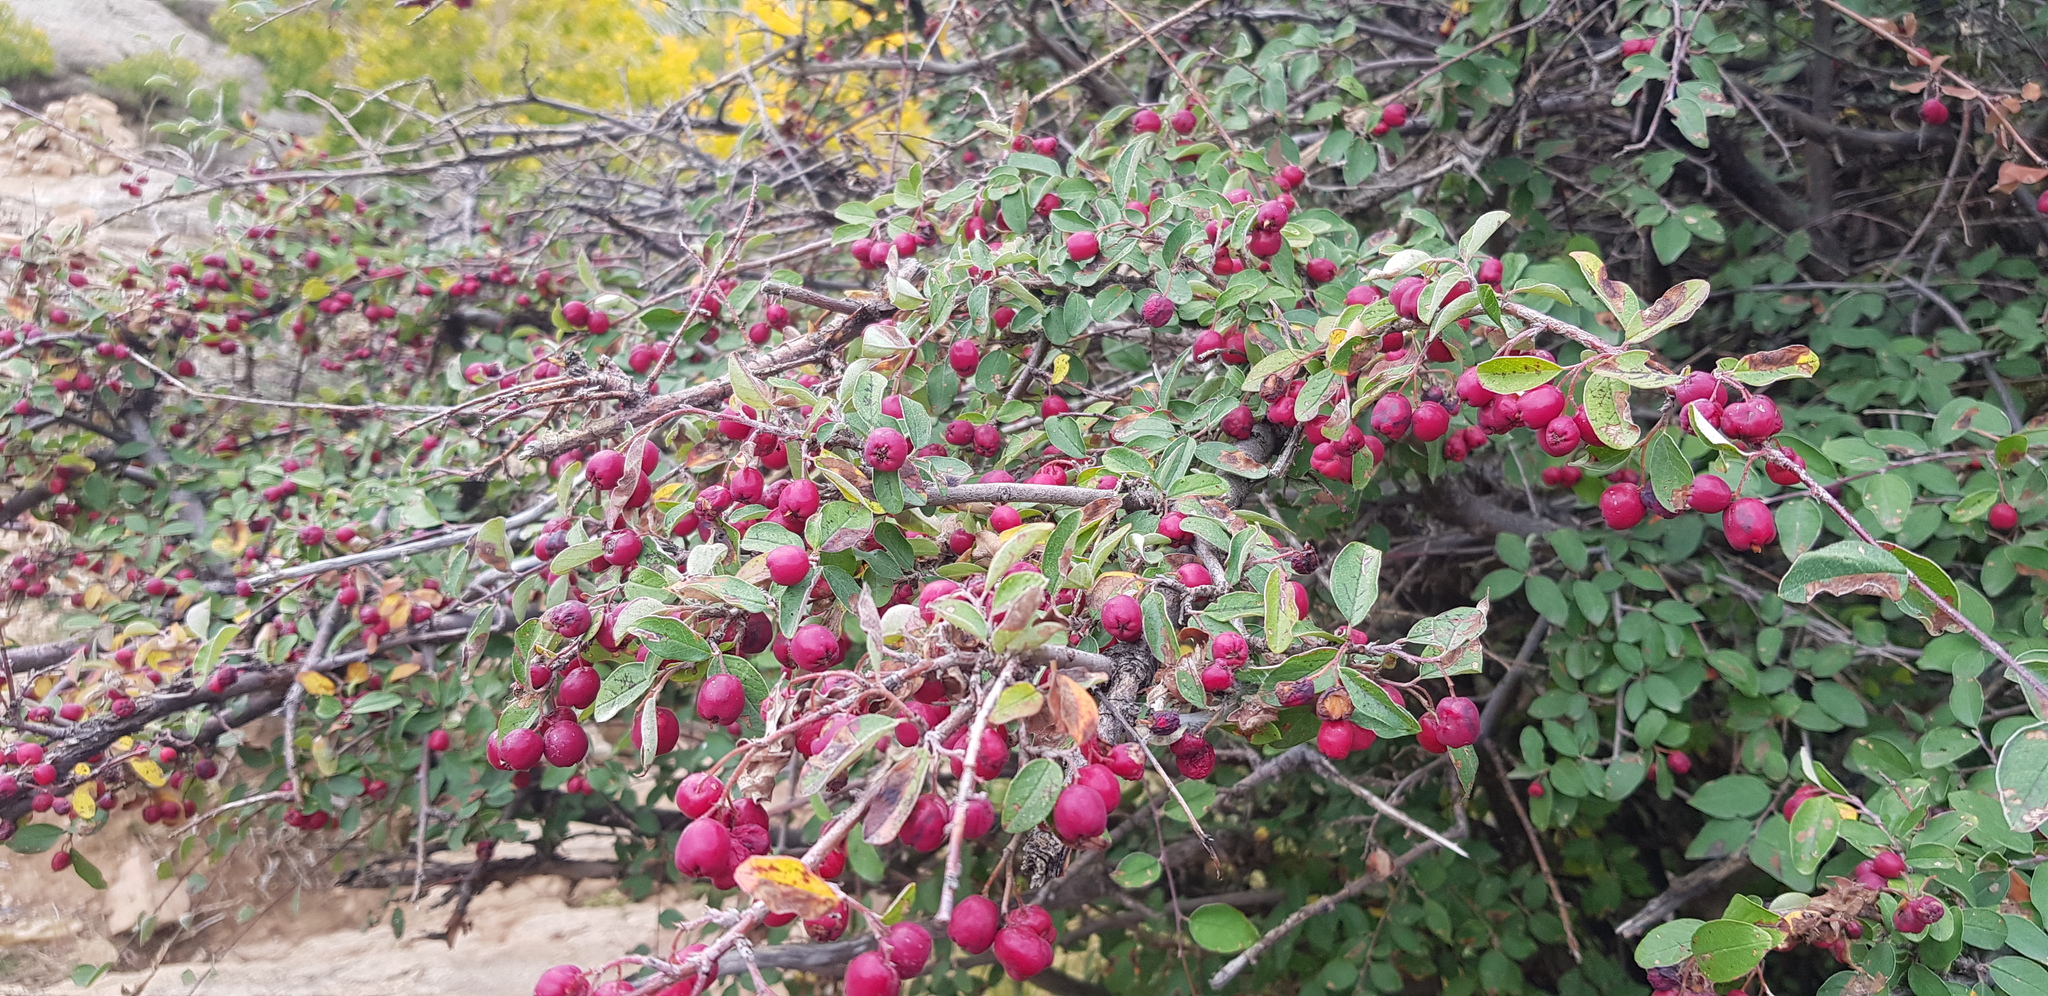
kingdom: Plantae
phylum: Tracheophyta
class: Magnoliopsida
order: Rosales
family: Rosaceae
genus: Cotoneaster
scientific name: Cotoneaster melanocarpus
